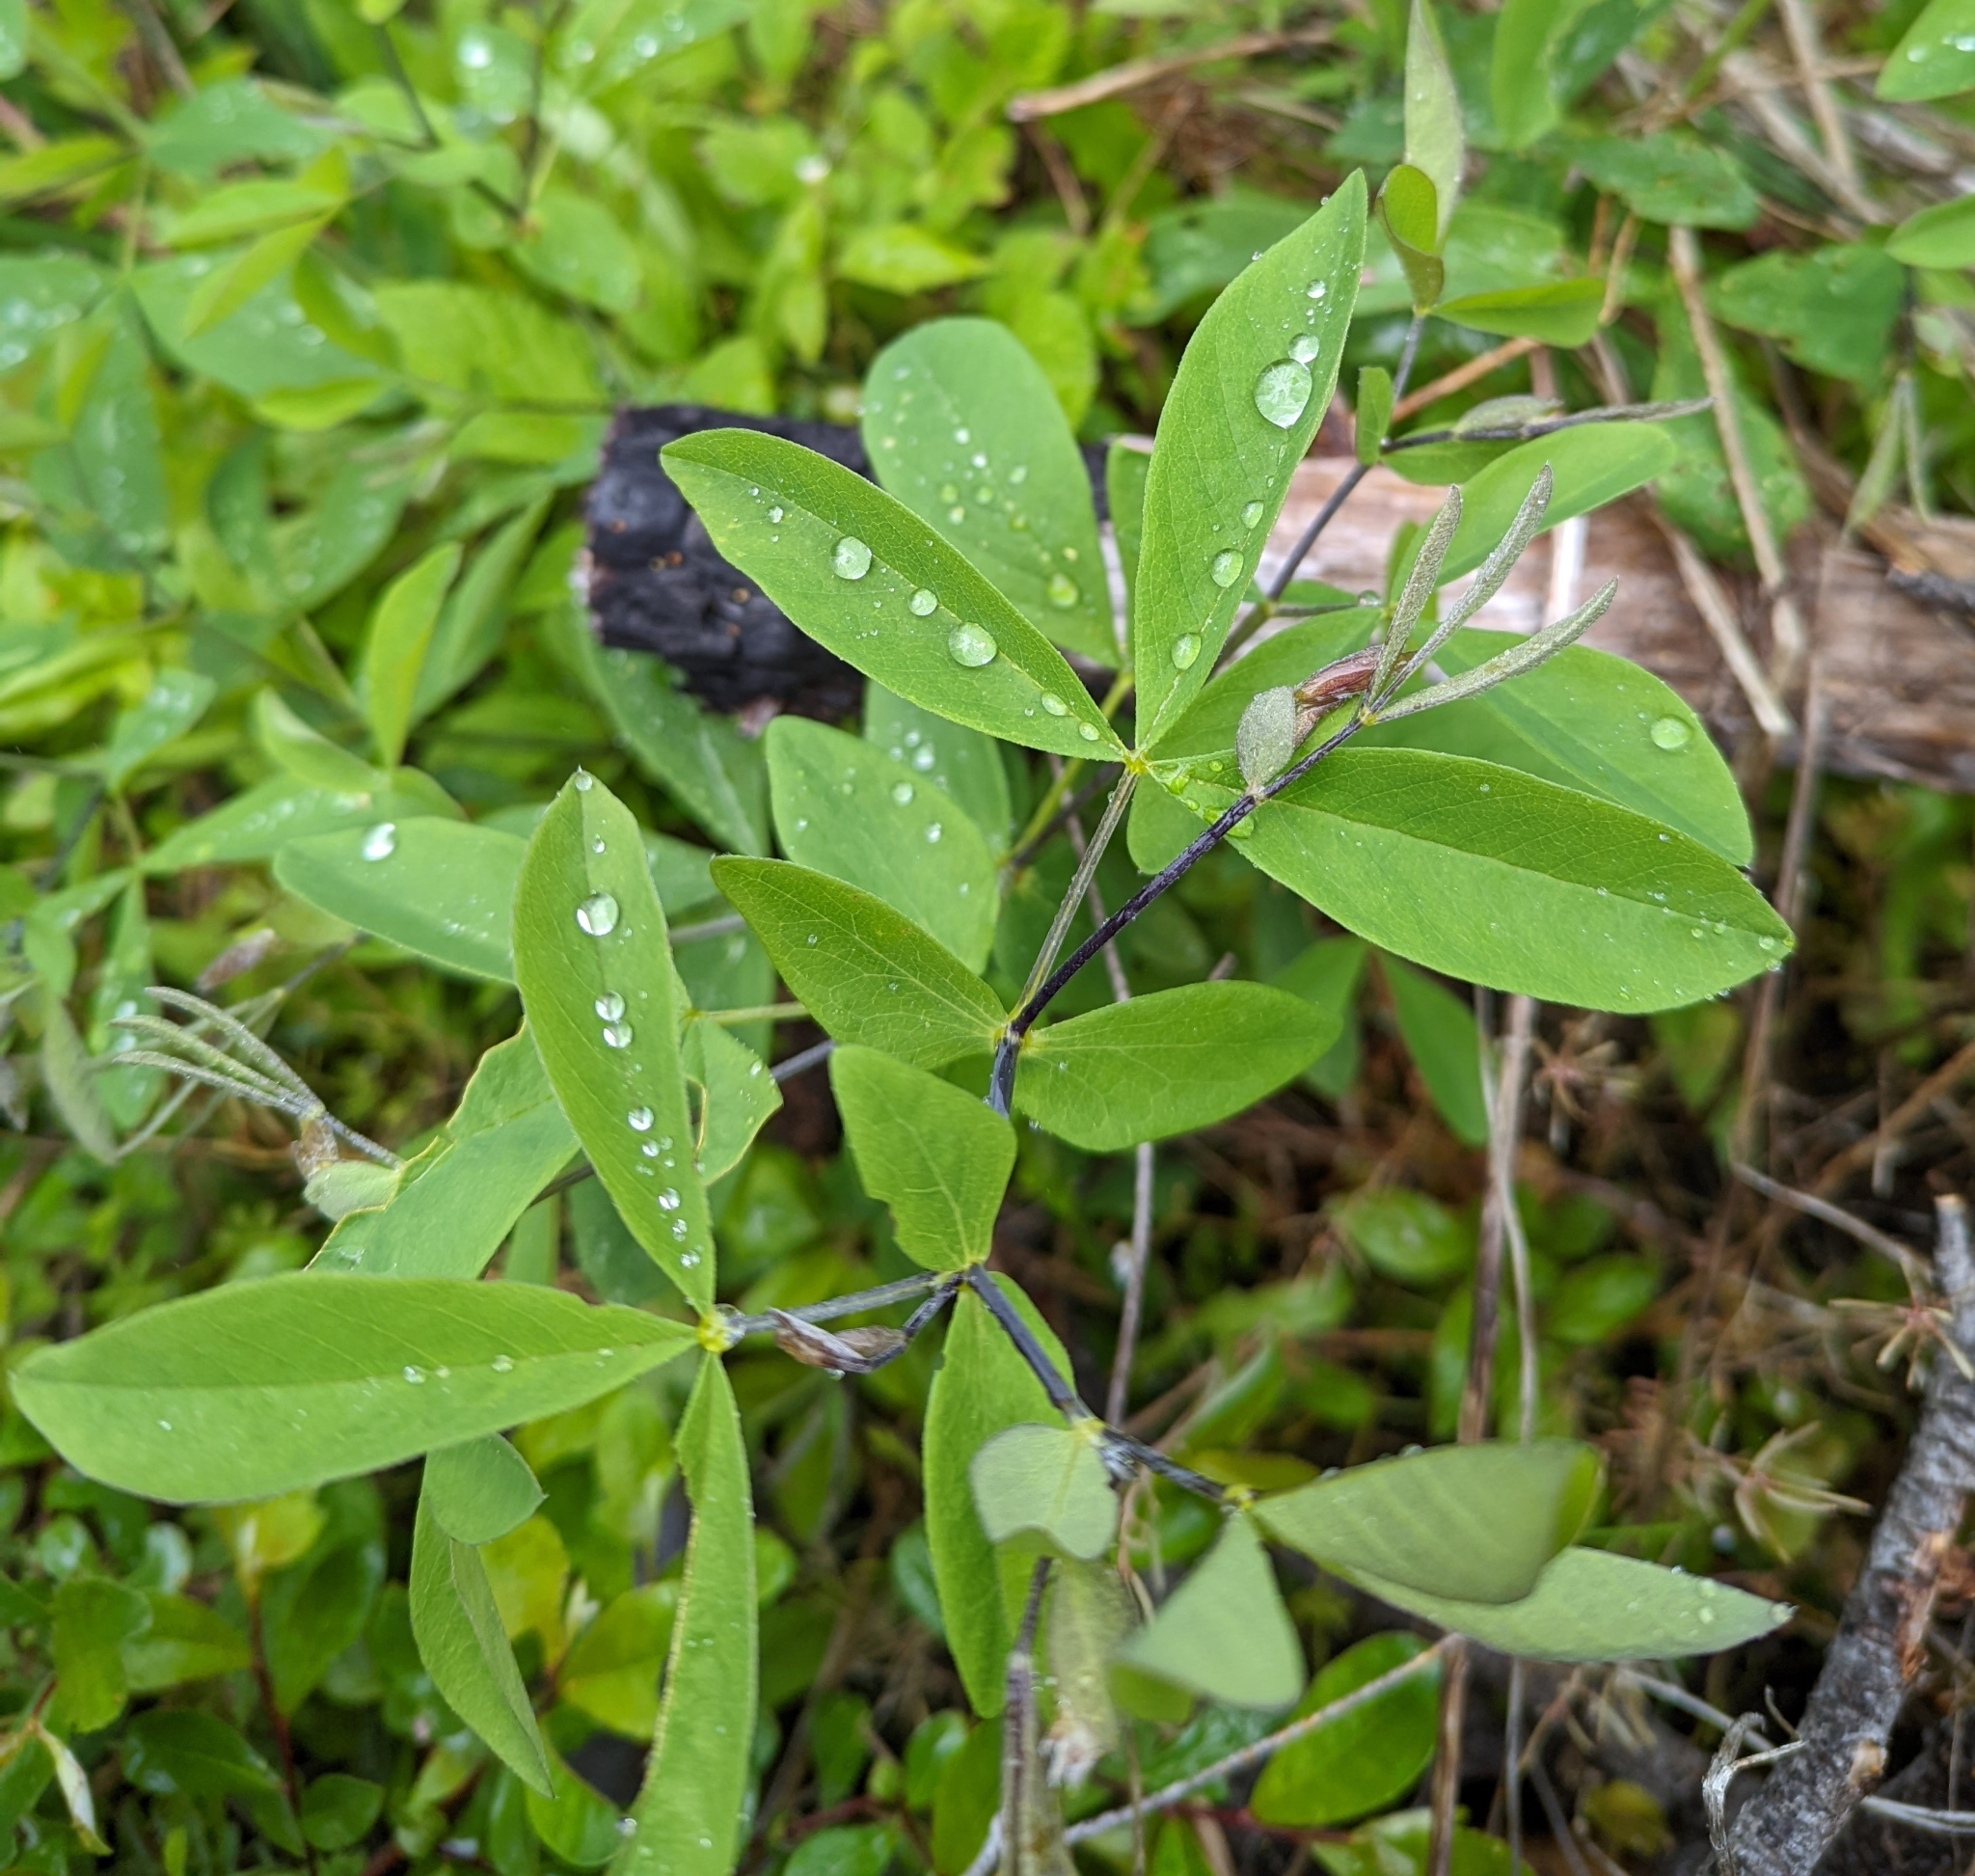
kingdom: Plantae
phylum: Tracheophyta
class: Magnoliopsida
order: Fabales
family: Fabaceae
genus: Thermopsis
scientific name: Thermopsis gracilis
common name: Slender golden-banner
